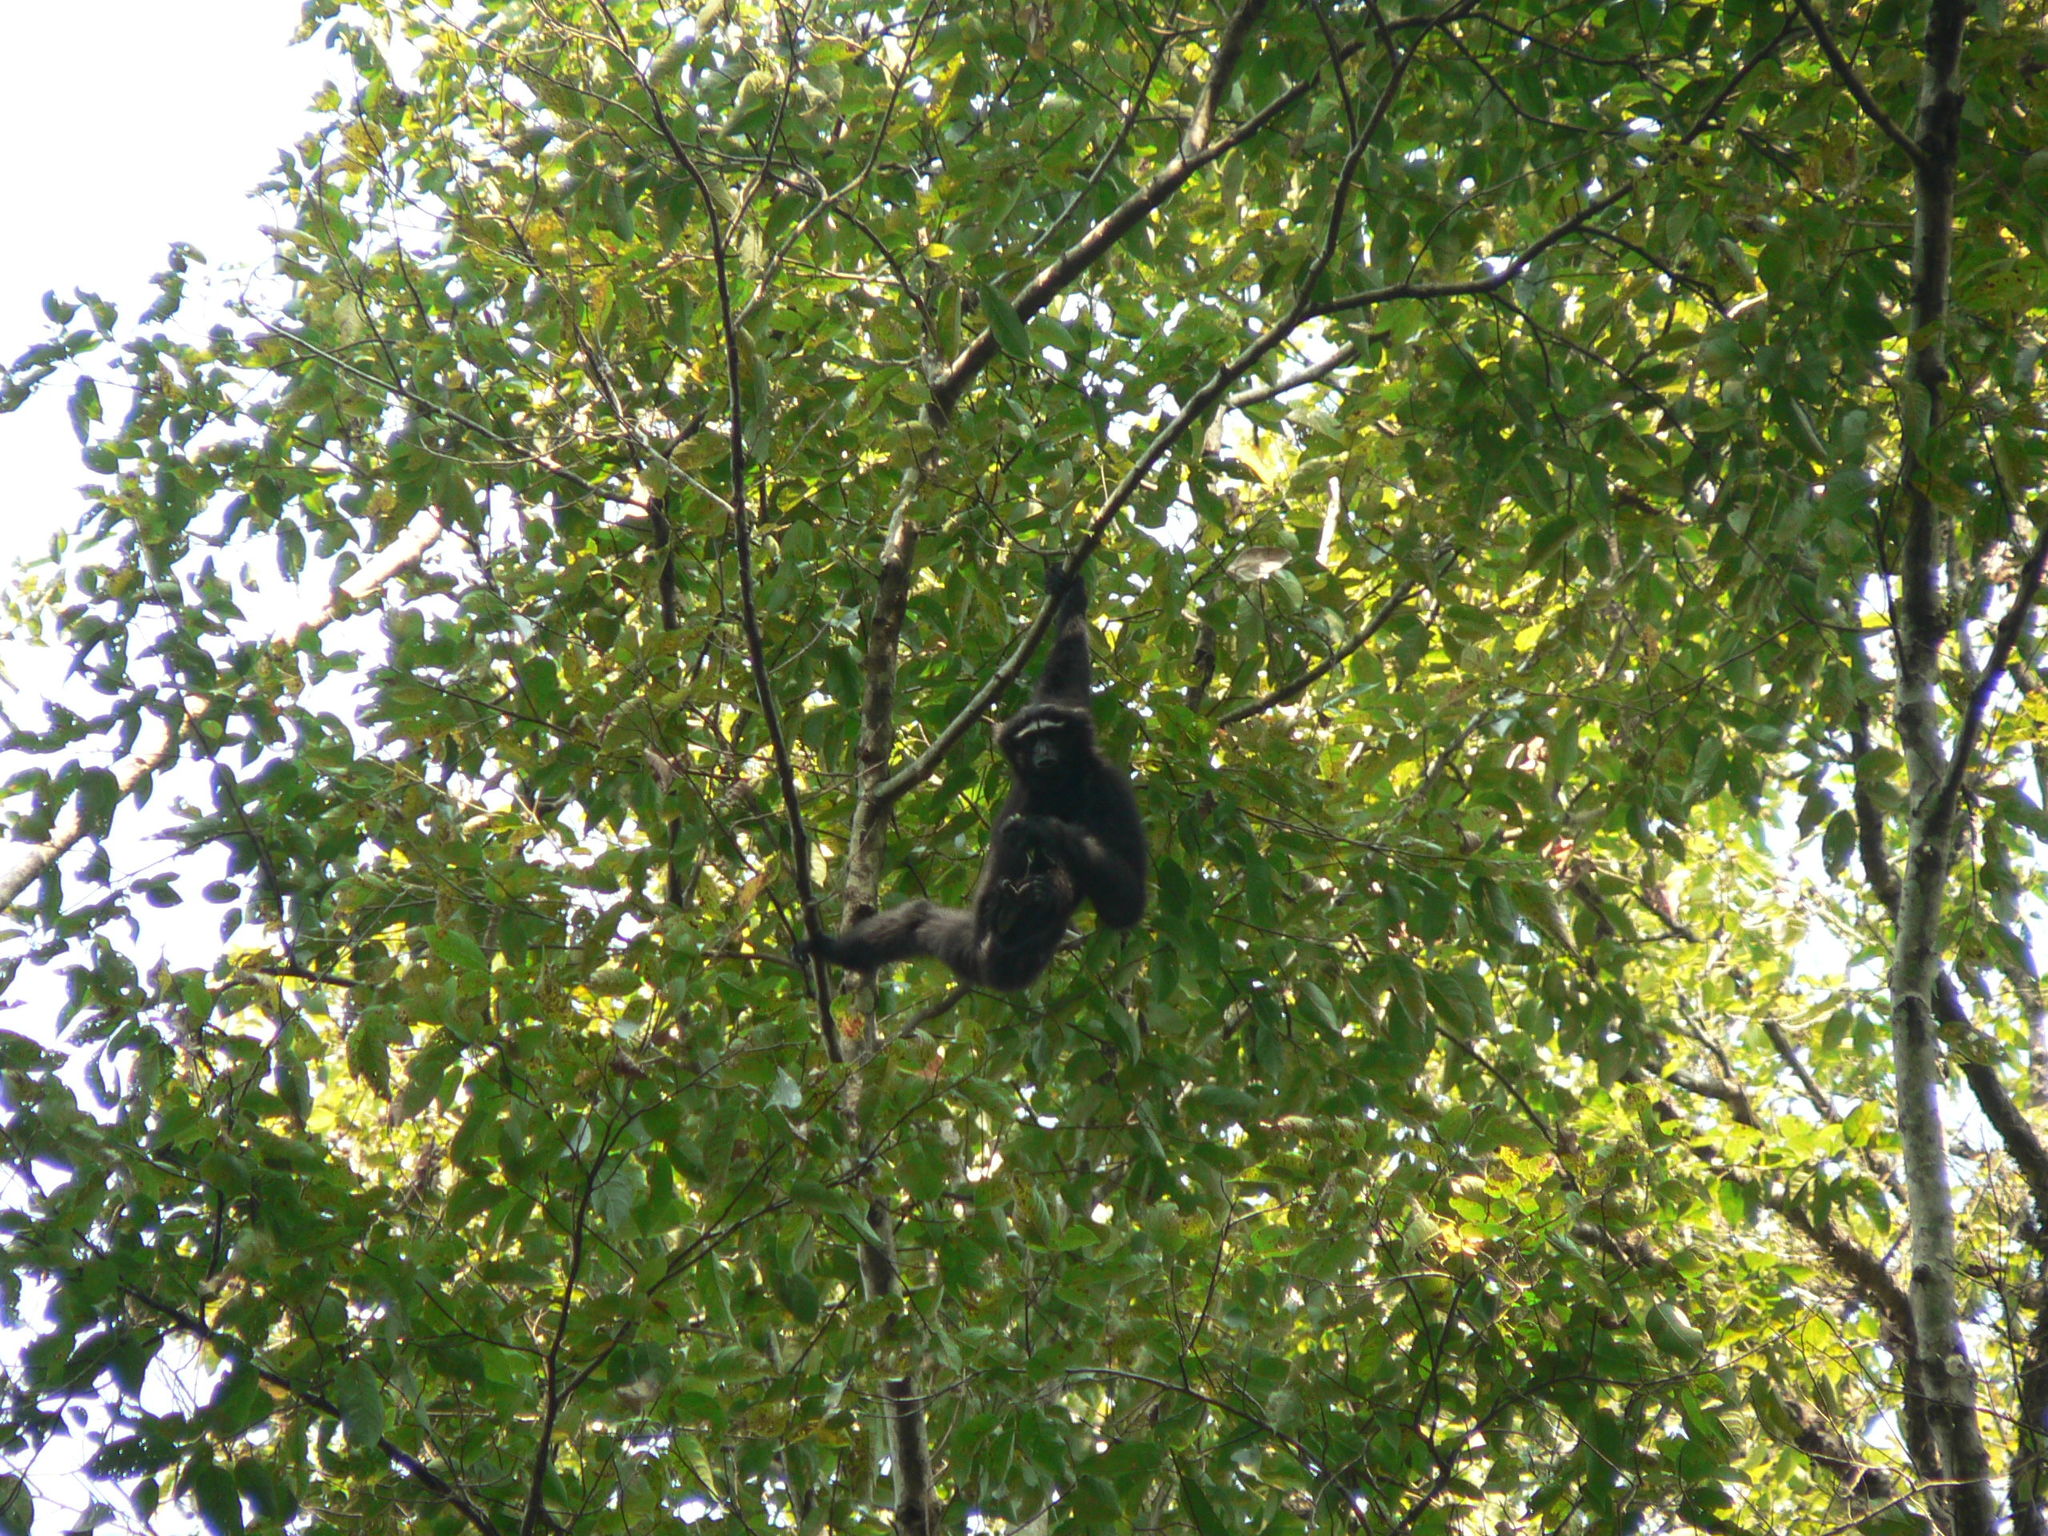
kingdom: Animalia
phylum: Chordata
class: Mammalia
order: Primates
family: Hylobatidae
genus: Hoolock
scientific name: Hoolock hoolock
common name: Western hoolock gibbon
